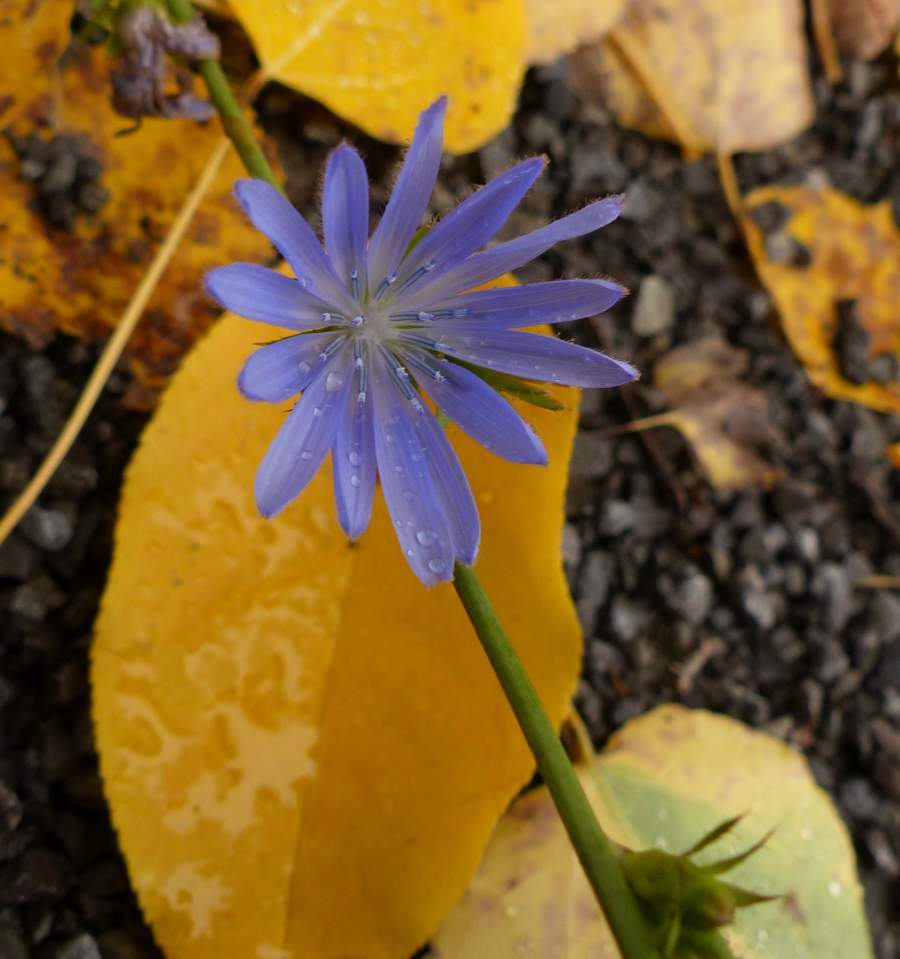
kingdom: Plantae
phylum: Tracheophyta
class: Magnoliopsida
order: Asterales
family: Asteraceae
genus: Cichorium
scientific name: Cichorium intybus
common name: Chicory
